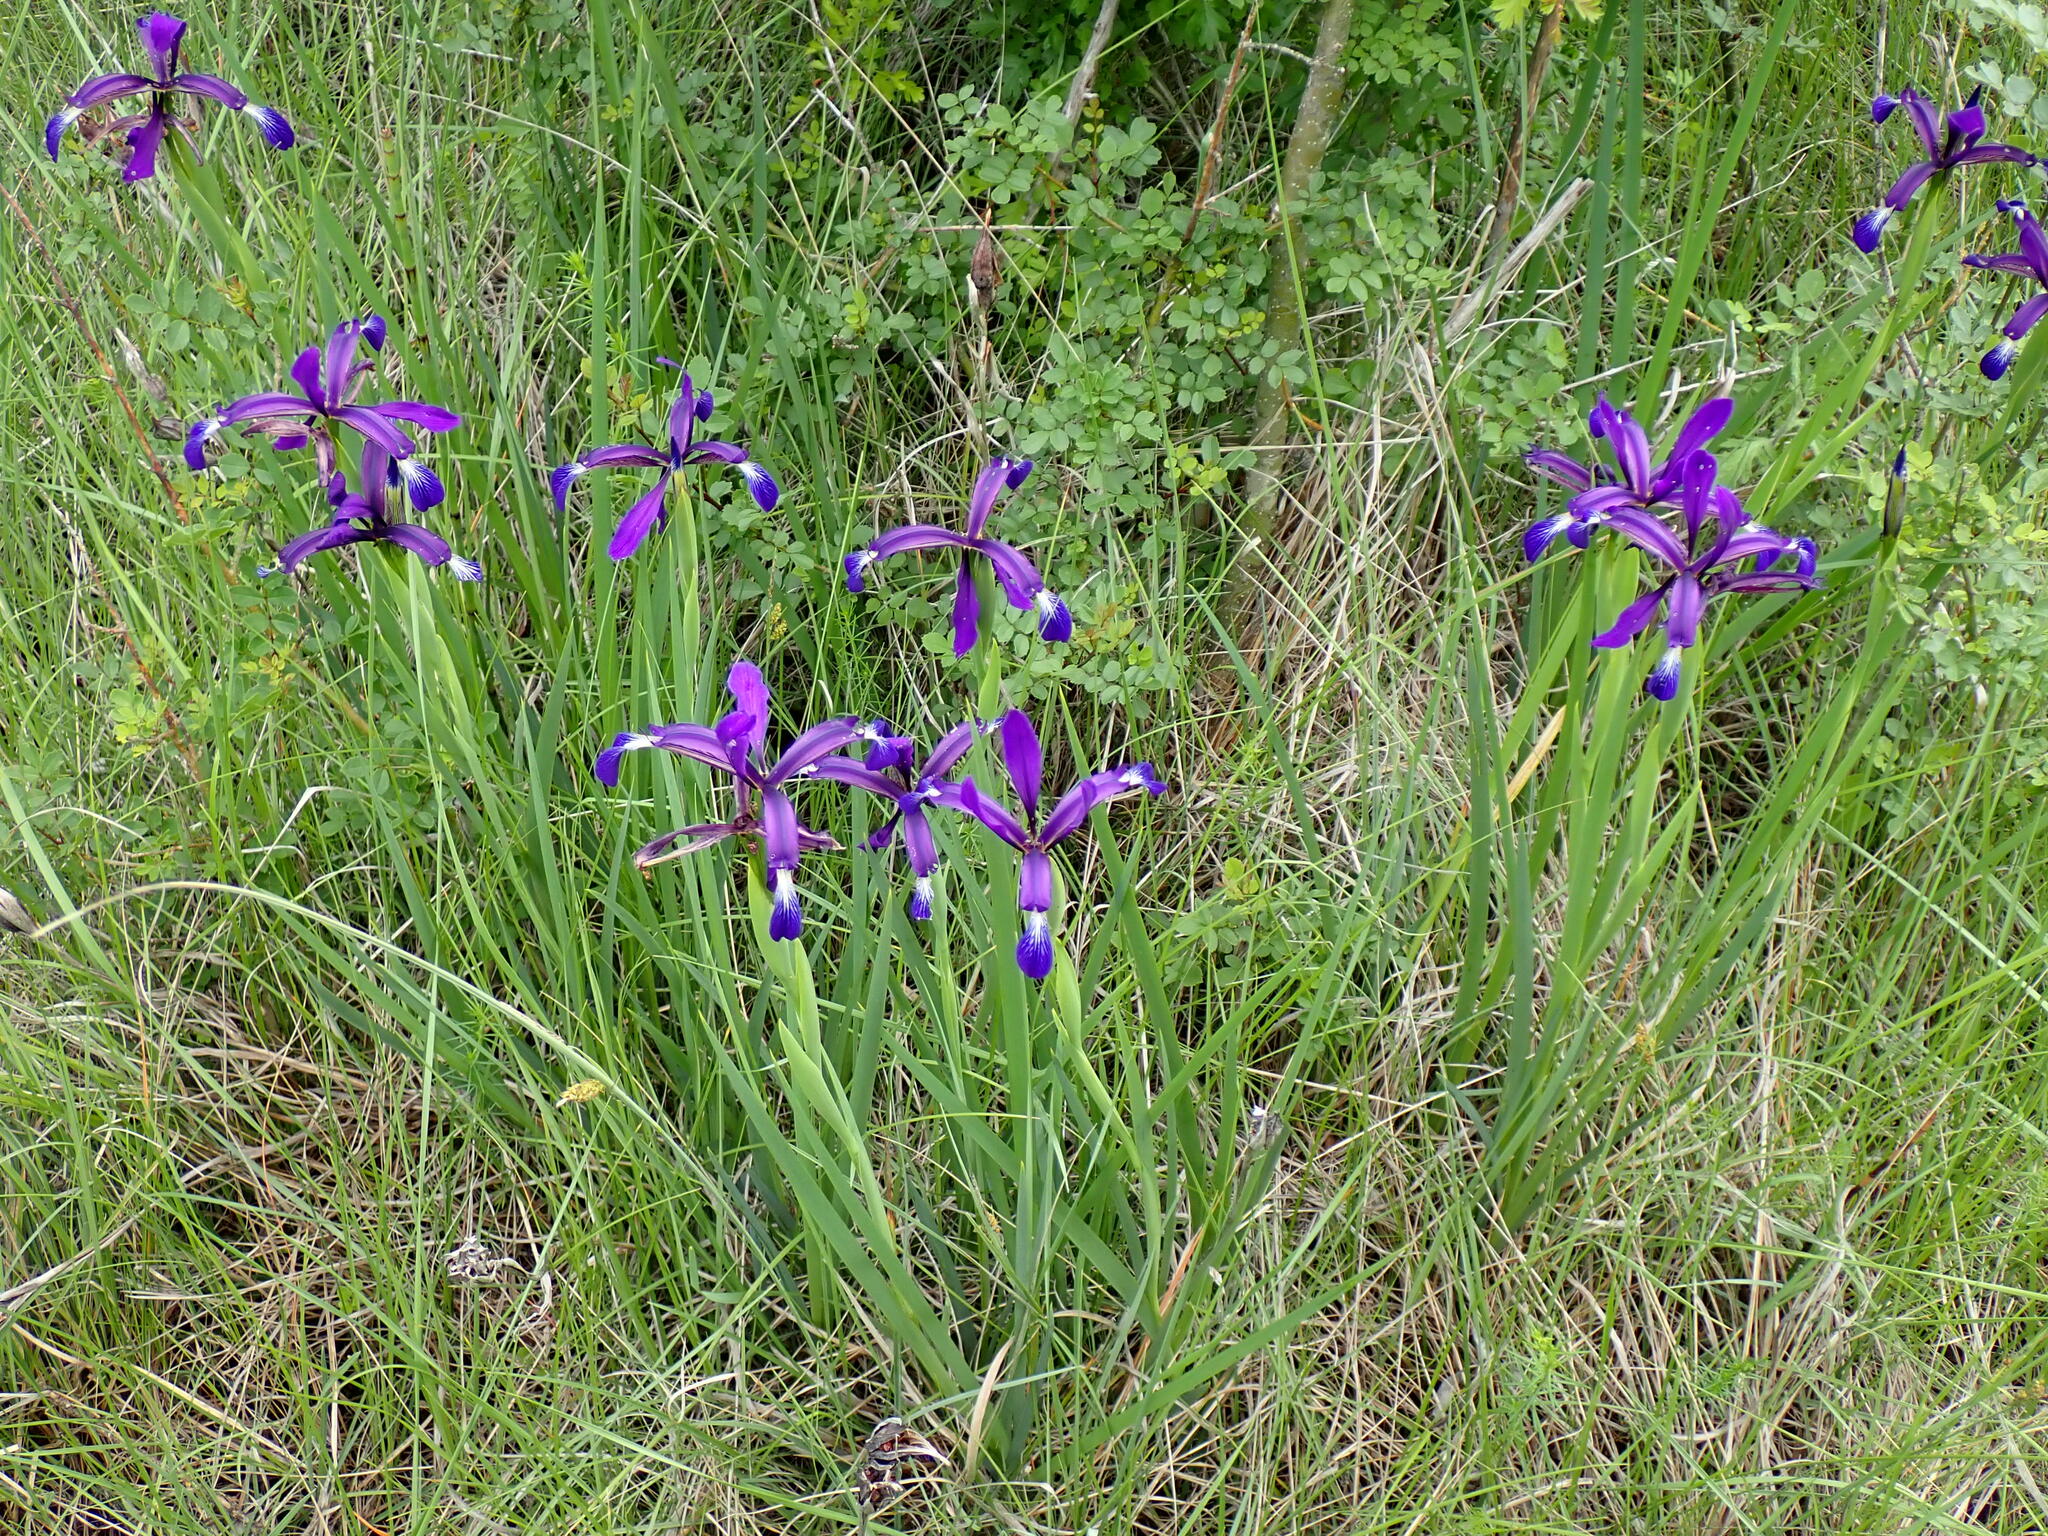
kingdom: Plantae
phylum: Tracheophyta
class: Liliopsida
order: Asparagales
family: Iridaceae
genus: Iris
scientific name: Iris reichenbachiana
